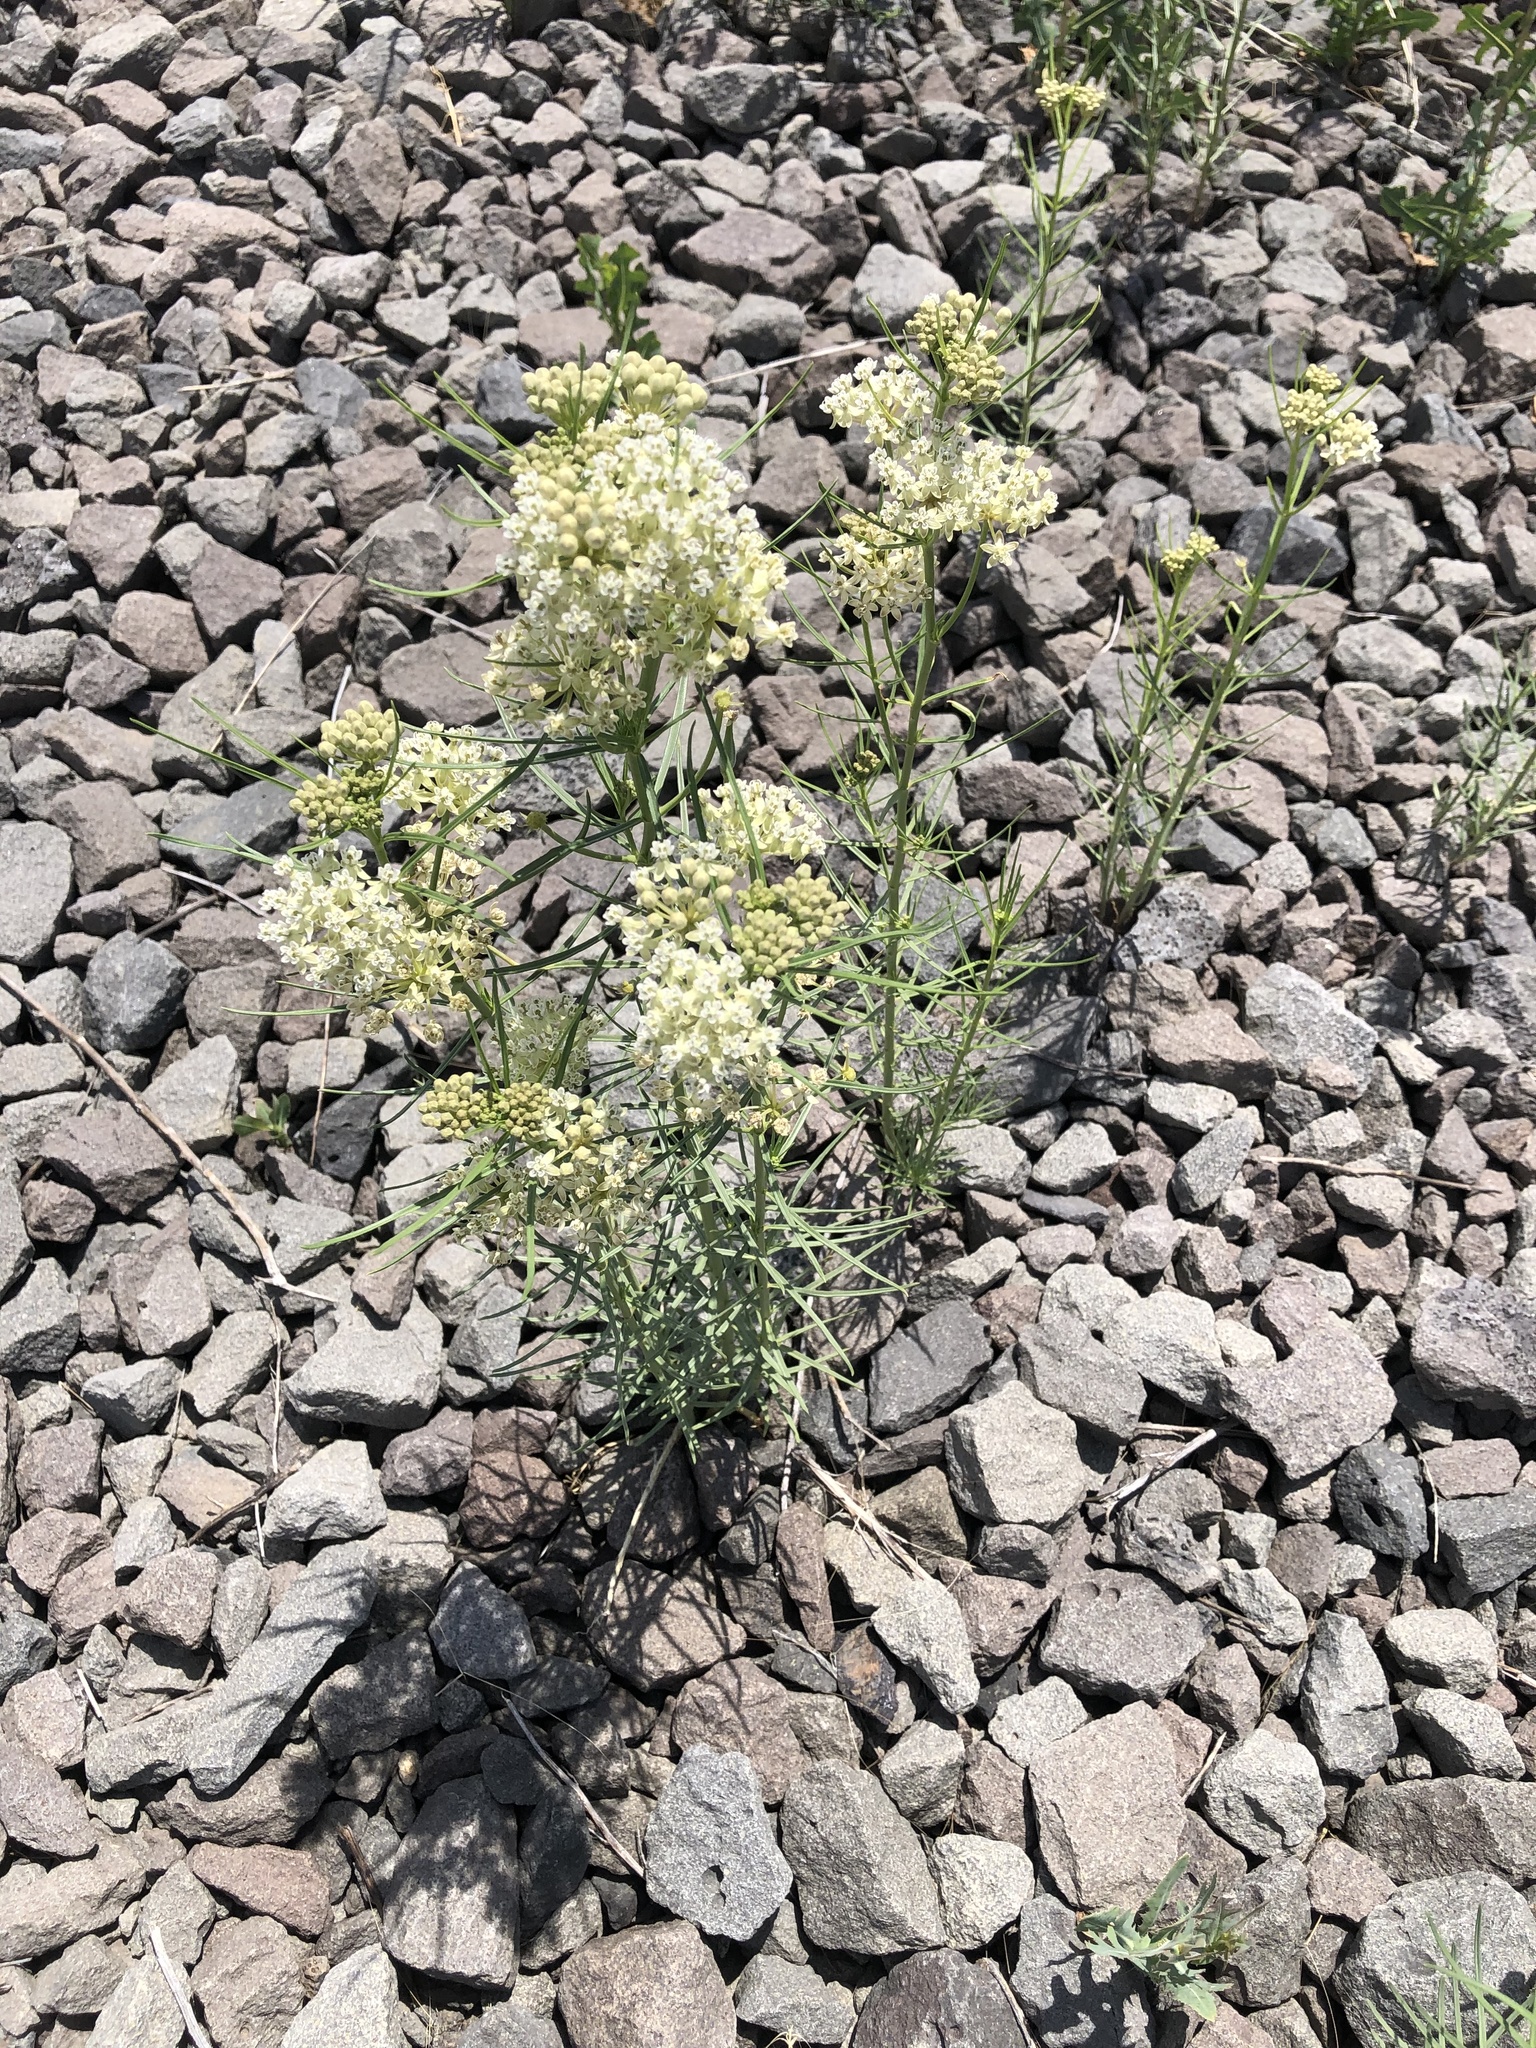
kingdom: Plantae
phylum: Tracheophyta
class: Magnoliopsida
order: Gentianales
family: Apocynaceae
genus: Asclepias
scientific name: Asclepias subverticillata
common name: Horsetail milkweed
